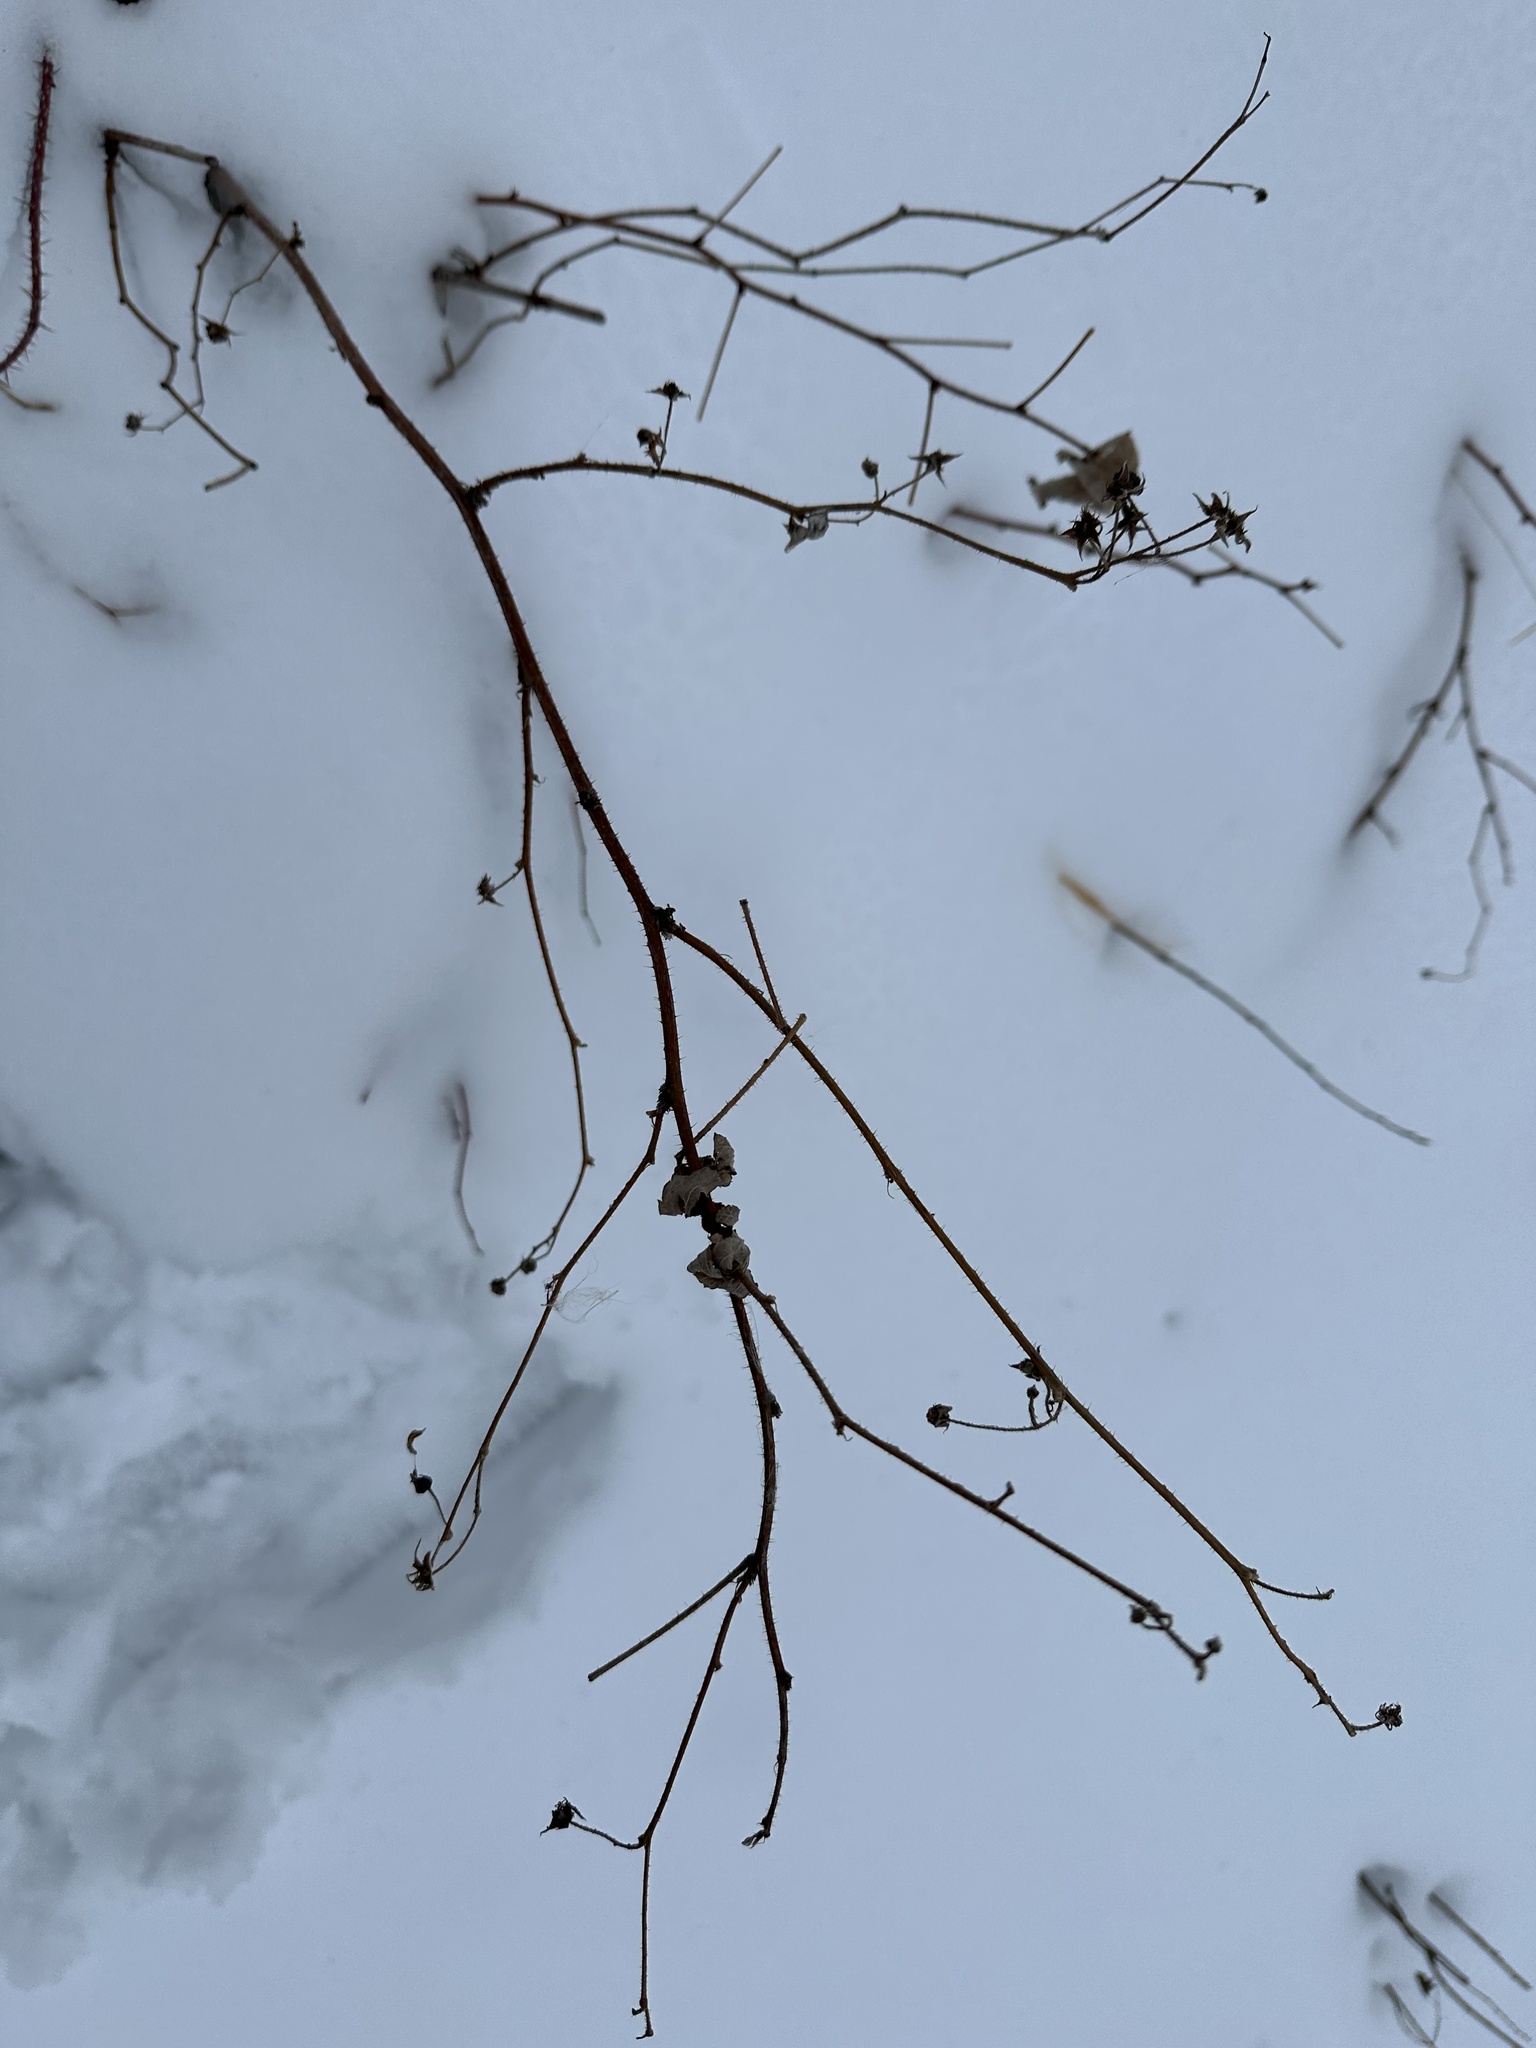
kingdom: Plantae
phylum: Tracheophyta
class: Magnoliopsida
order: Rosales
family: Rosaceae
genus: Rubus
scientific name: Rubus idaeus
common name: Raspberry
